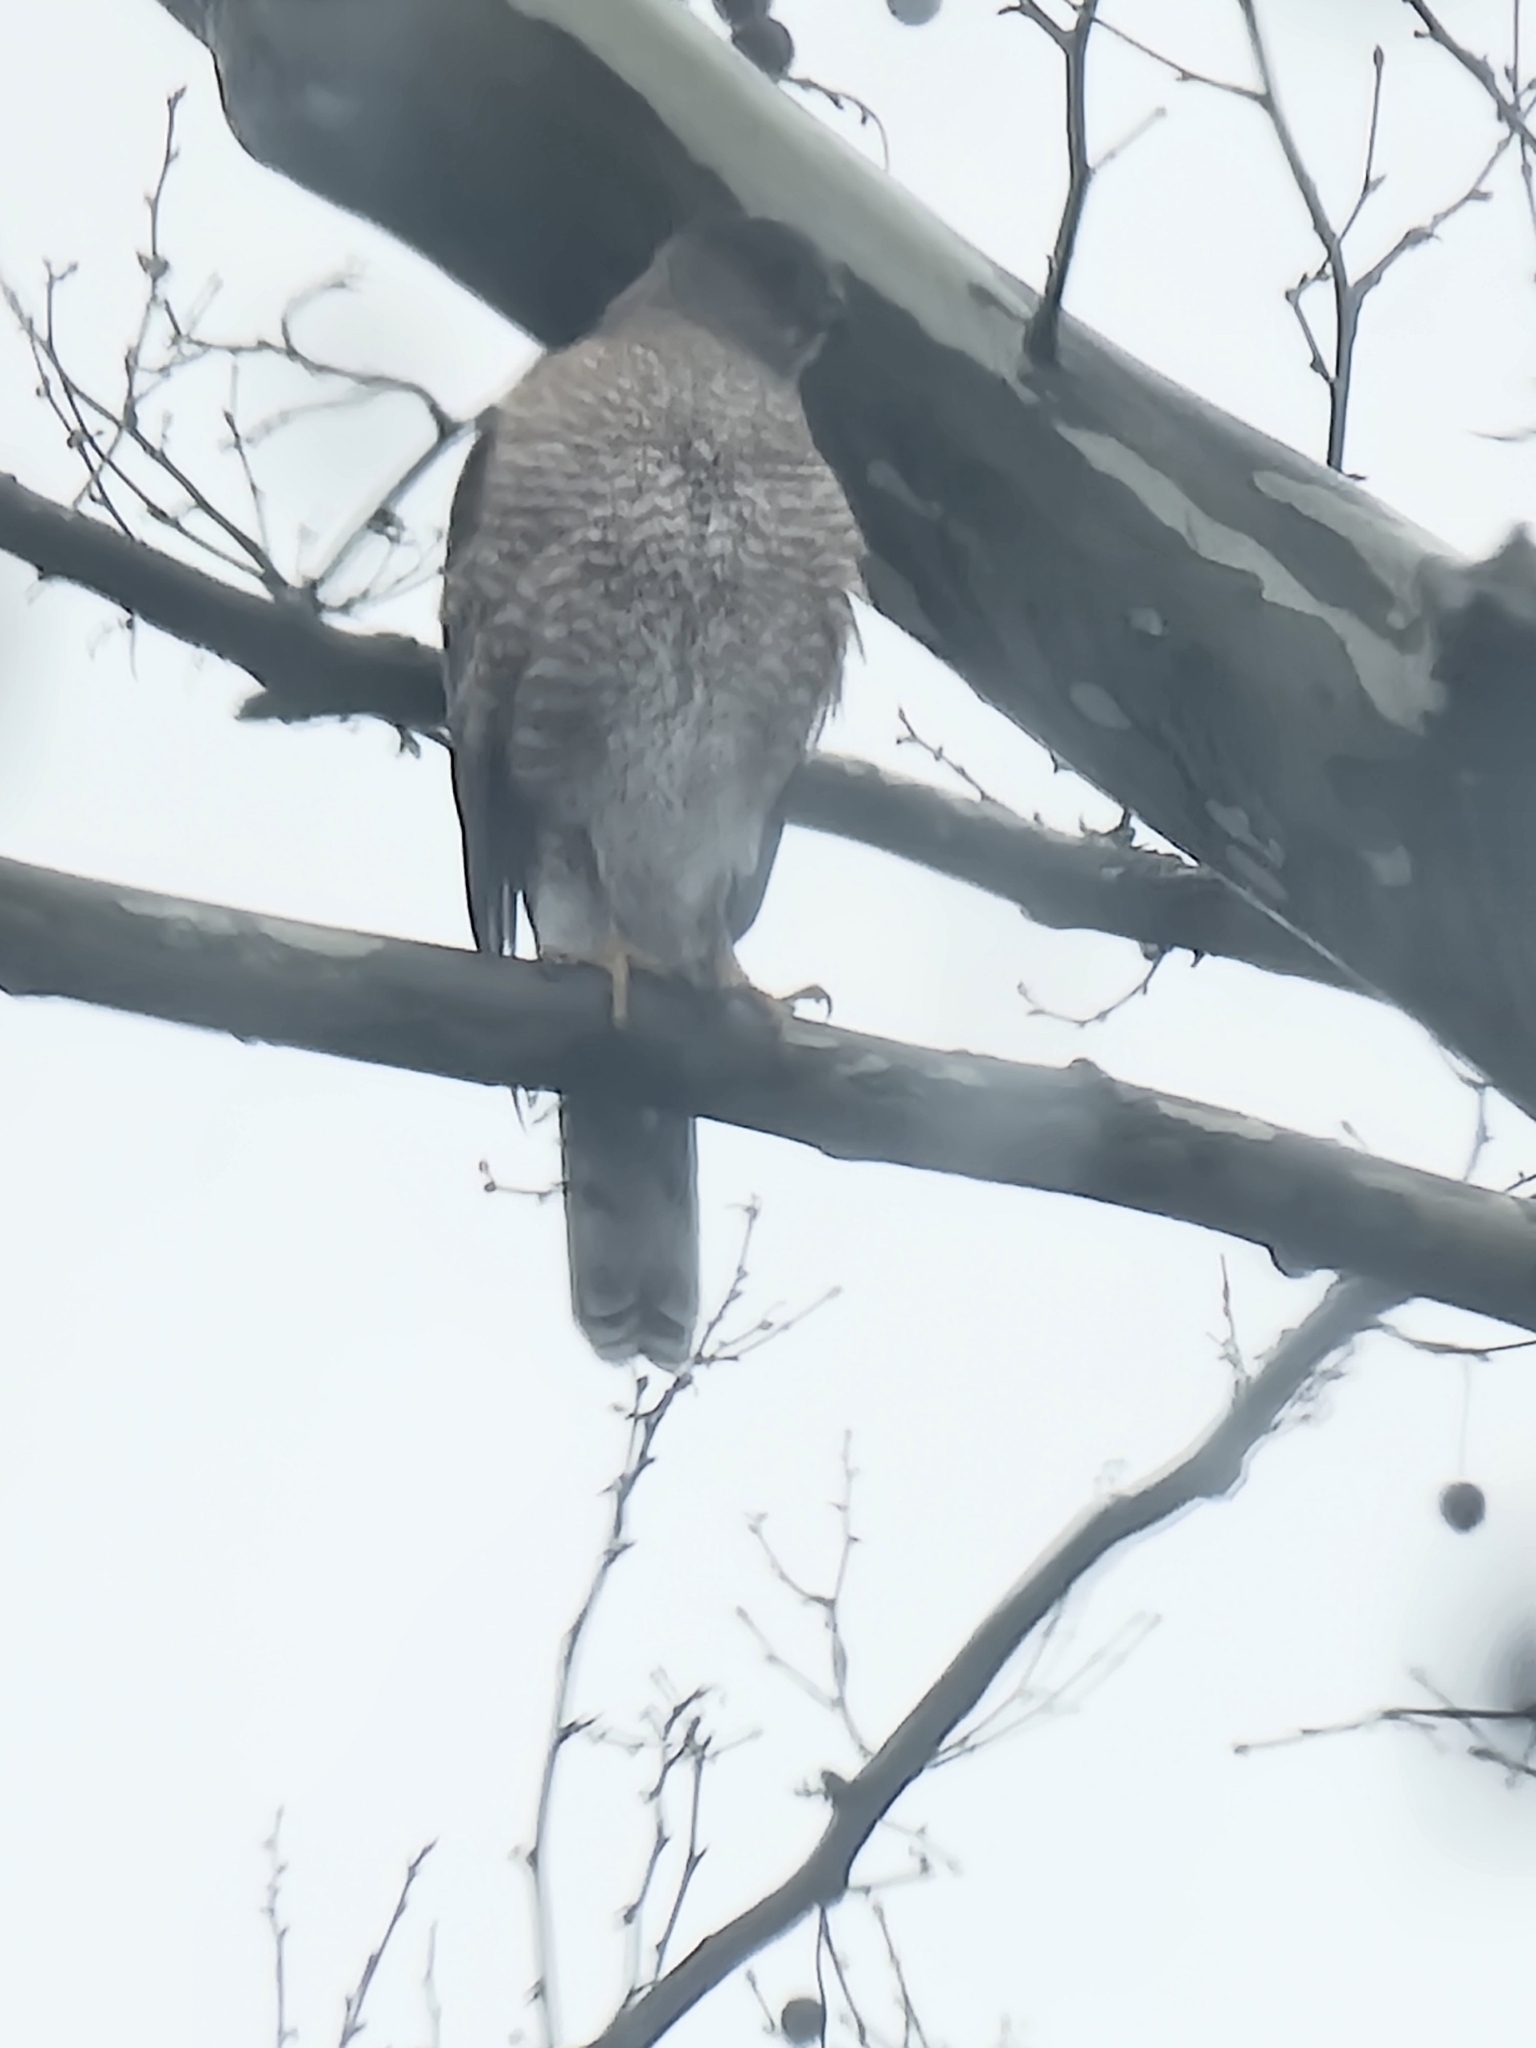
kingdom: Animalia
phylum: Chordata
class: Aves
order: Accipitriformes
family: Accipitridae
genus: Accipiter
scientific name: Accipiter cooperii
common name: Cooper's hawk
